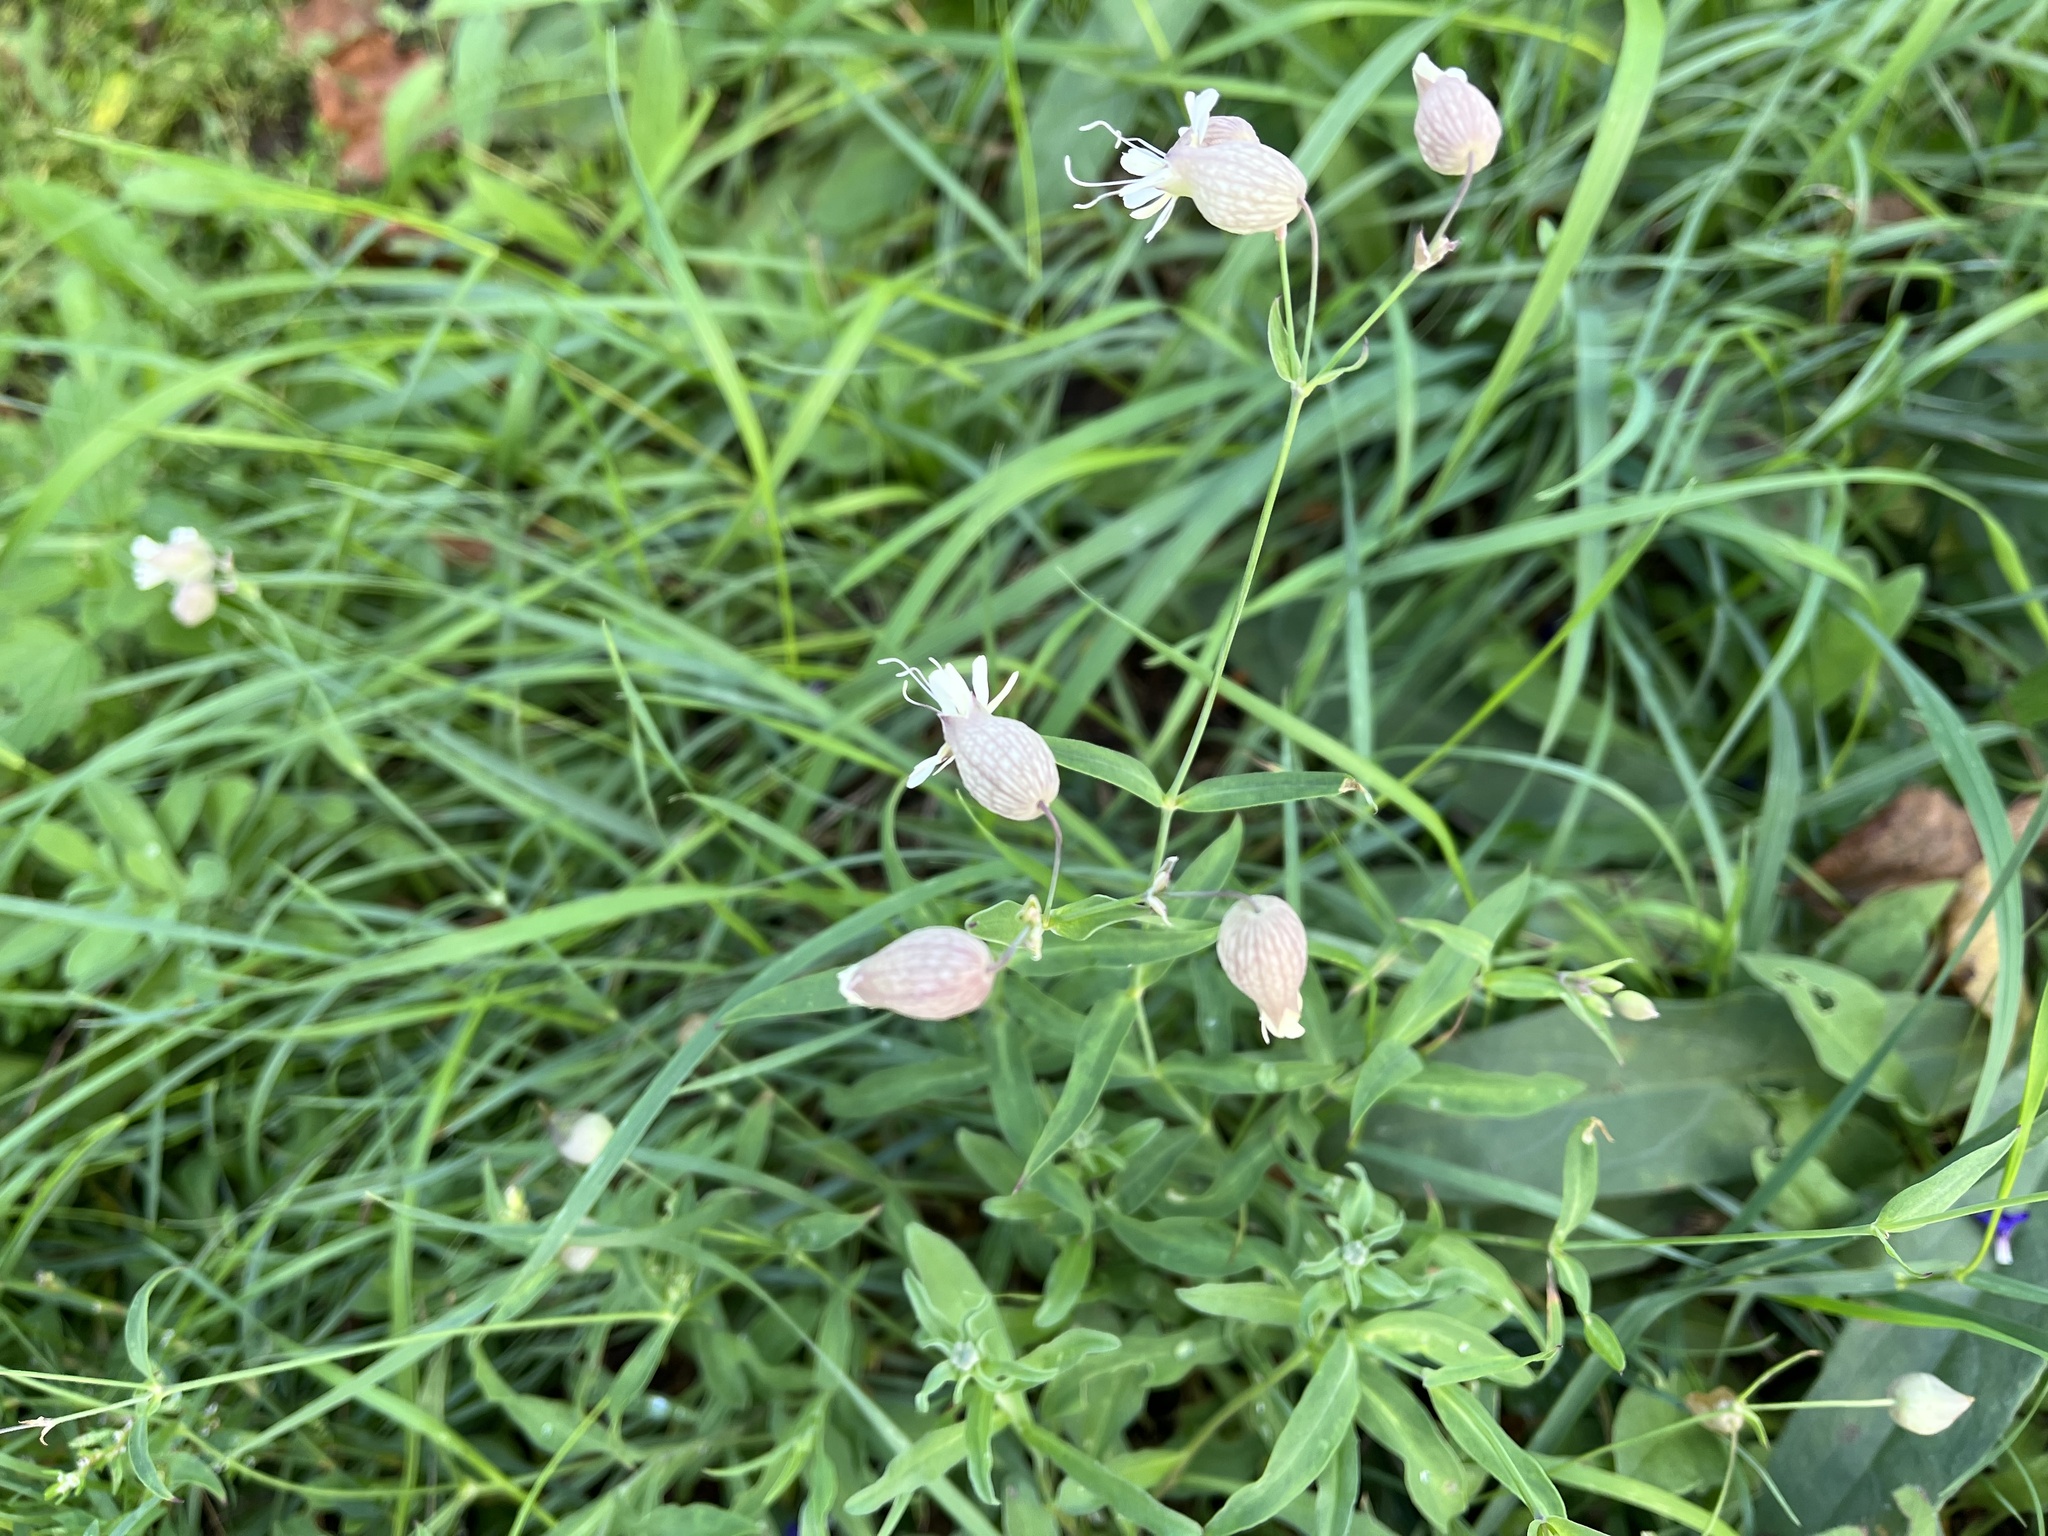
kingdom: Plantae
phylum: Tracheophyta
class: Magnoliopsida
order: Caryophyllales
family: Caryophyllaceae
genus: Silene
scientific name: Silene vulgaris
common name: Bladder campion
